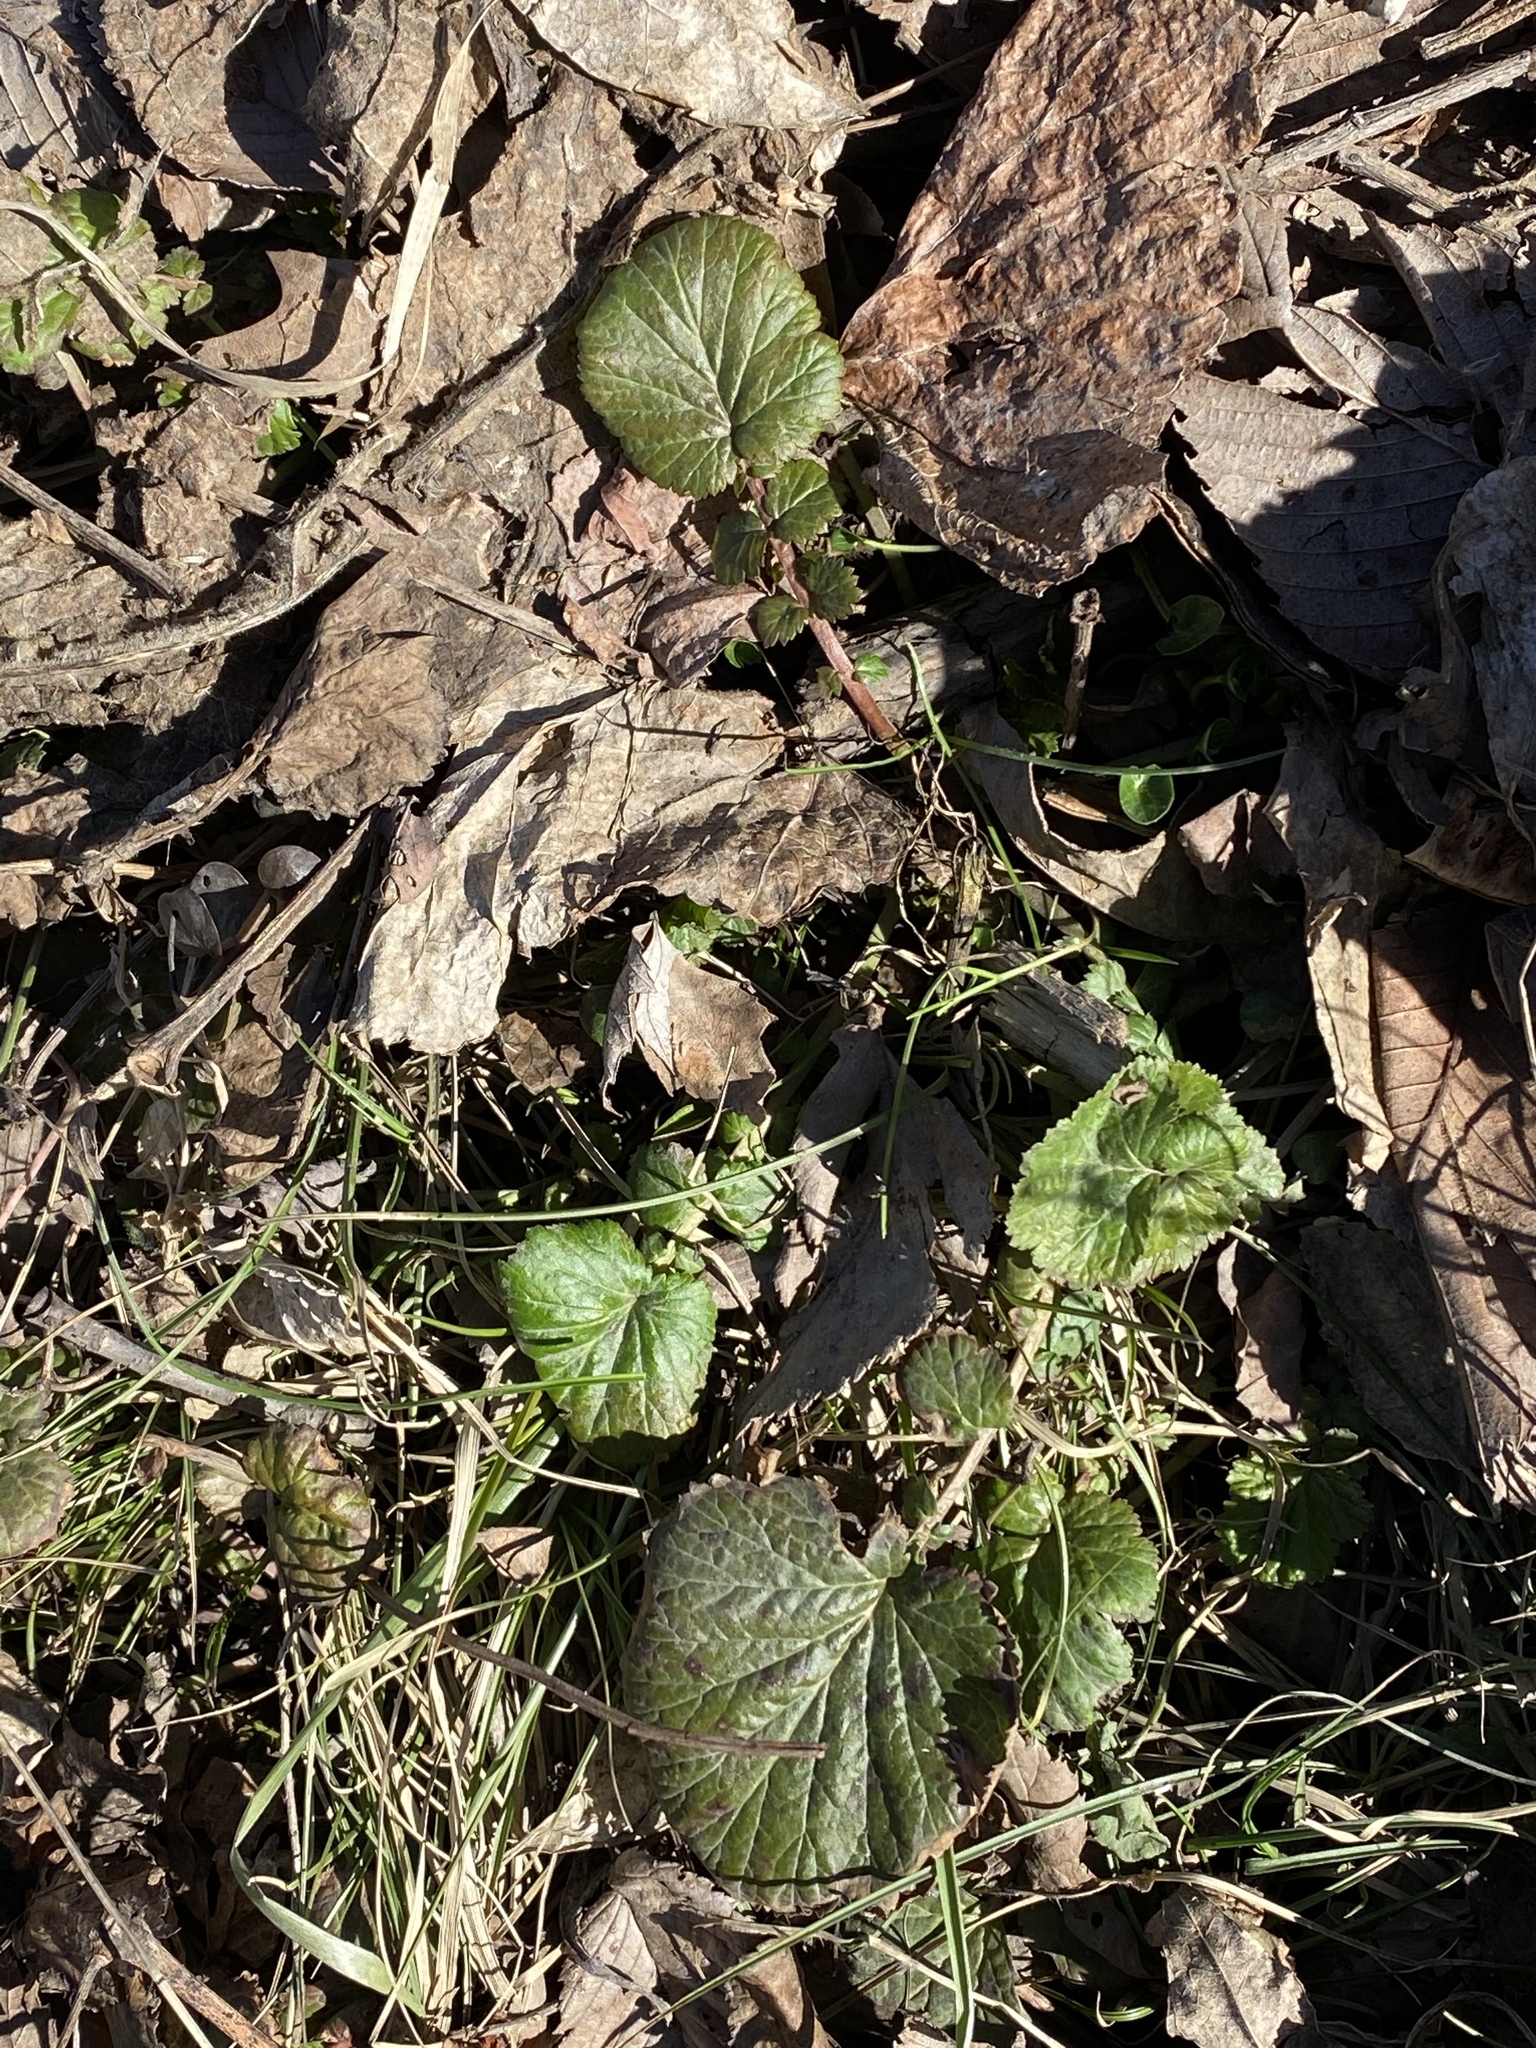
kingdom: Plantae
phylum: Tracheophyta
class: Magnoliopsida
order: Rosales
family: Rosaceae
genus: Geum
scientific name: Geum canadense
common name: White avens
